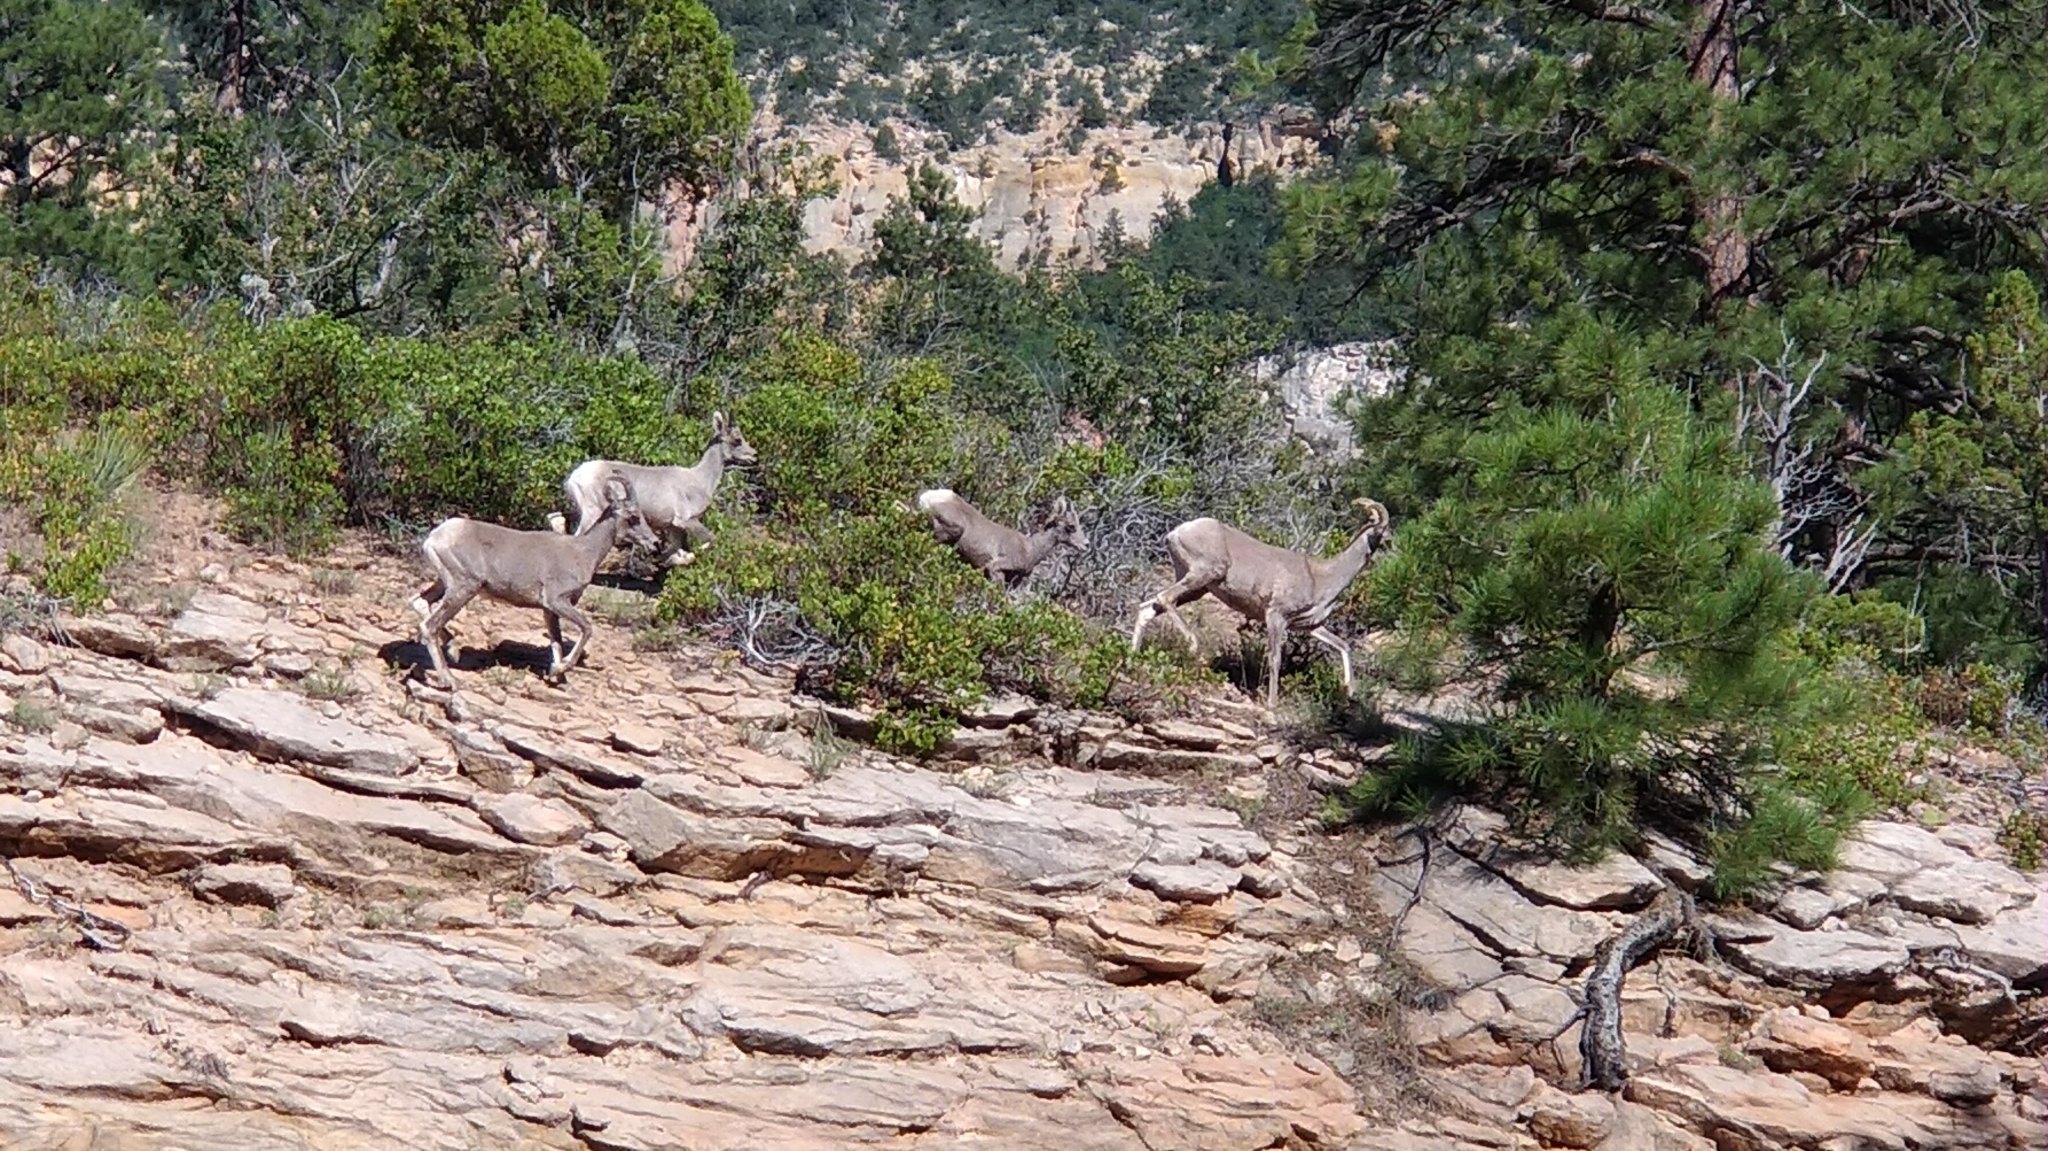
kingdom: Animalia
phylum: Chordata
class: Mammalia
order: Artiodactyla
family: Bovidae
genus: Ovis
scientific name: Ovis canadensis
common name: Bighorn sheep
